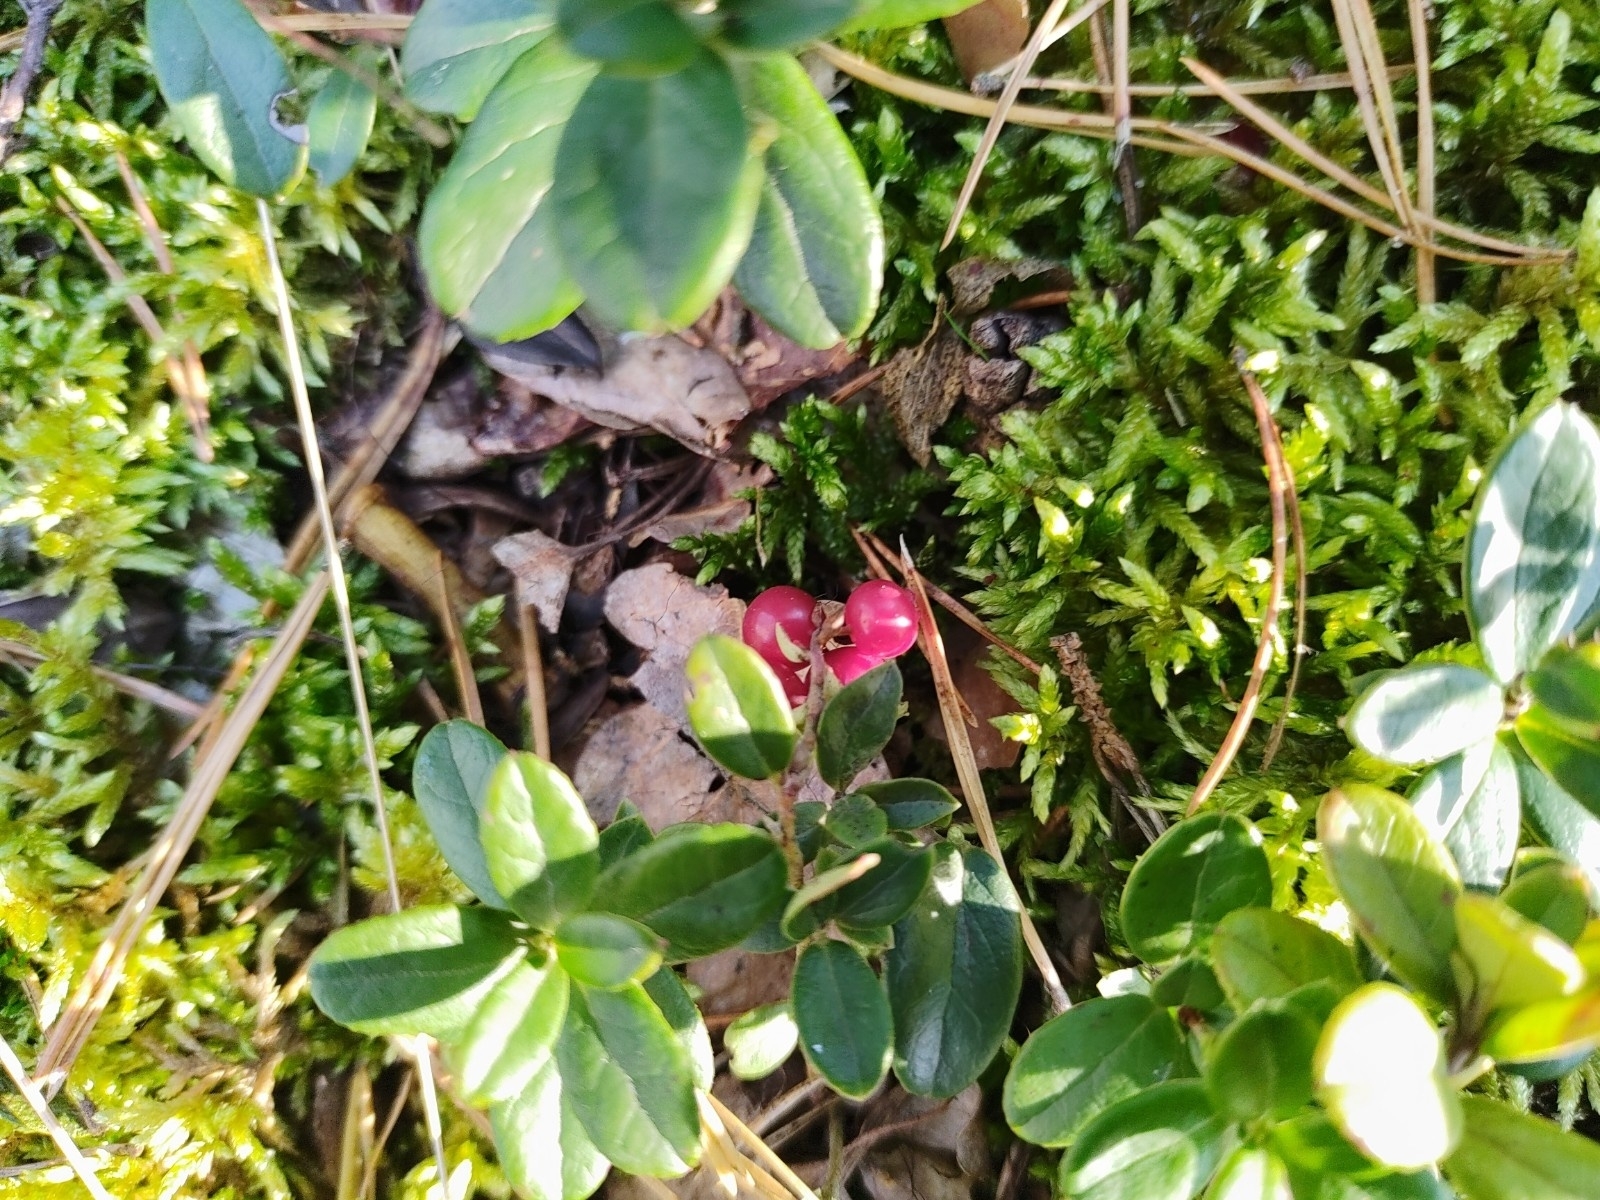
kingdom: Plantae
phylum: Tracheophyta
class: Magnoliopsida
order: Ericales
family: Ericaceae
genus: Vaccinium
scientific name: Vaccinium vitis-idaea
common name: Cowberry
